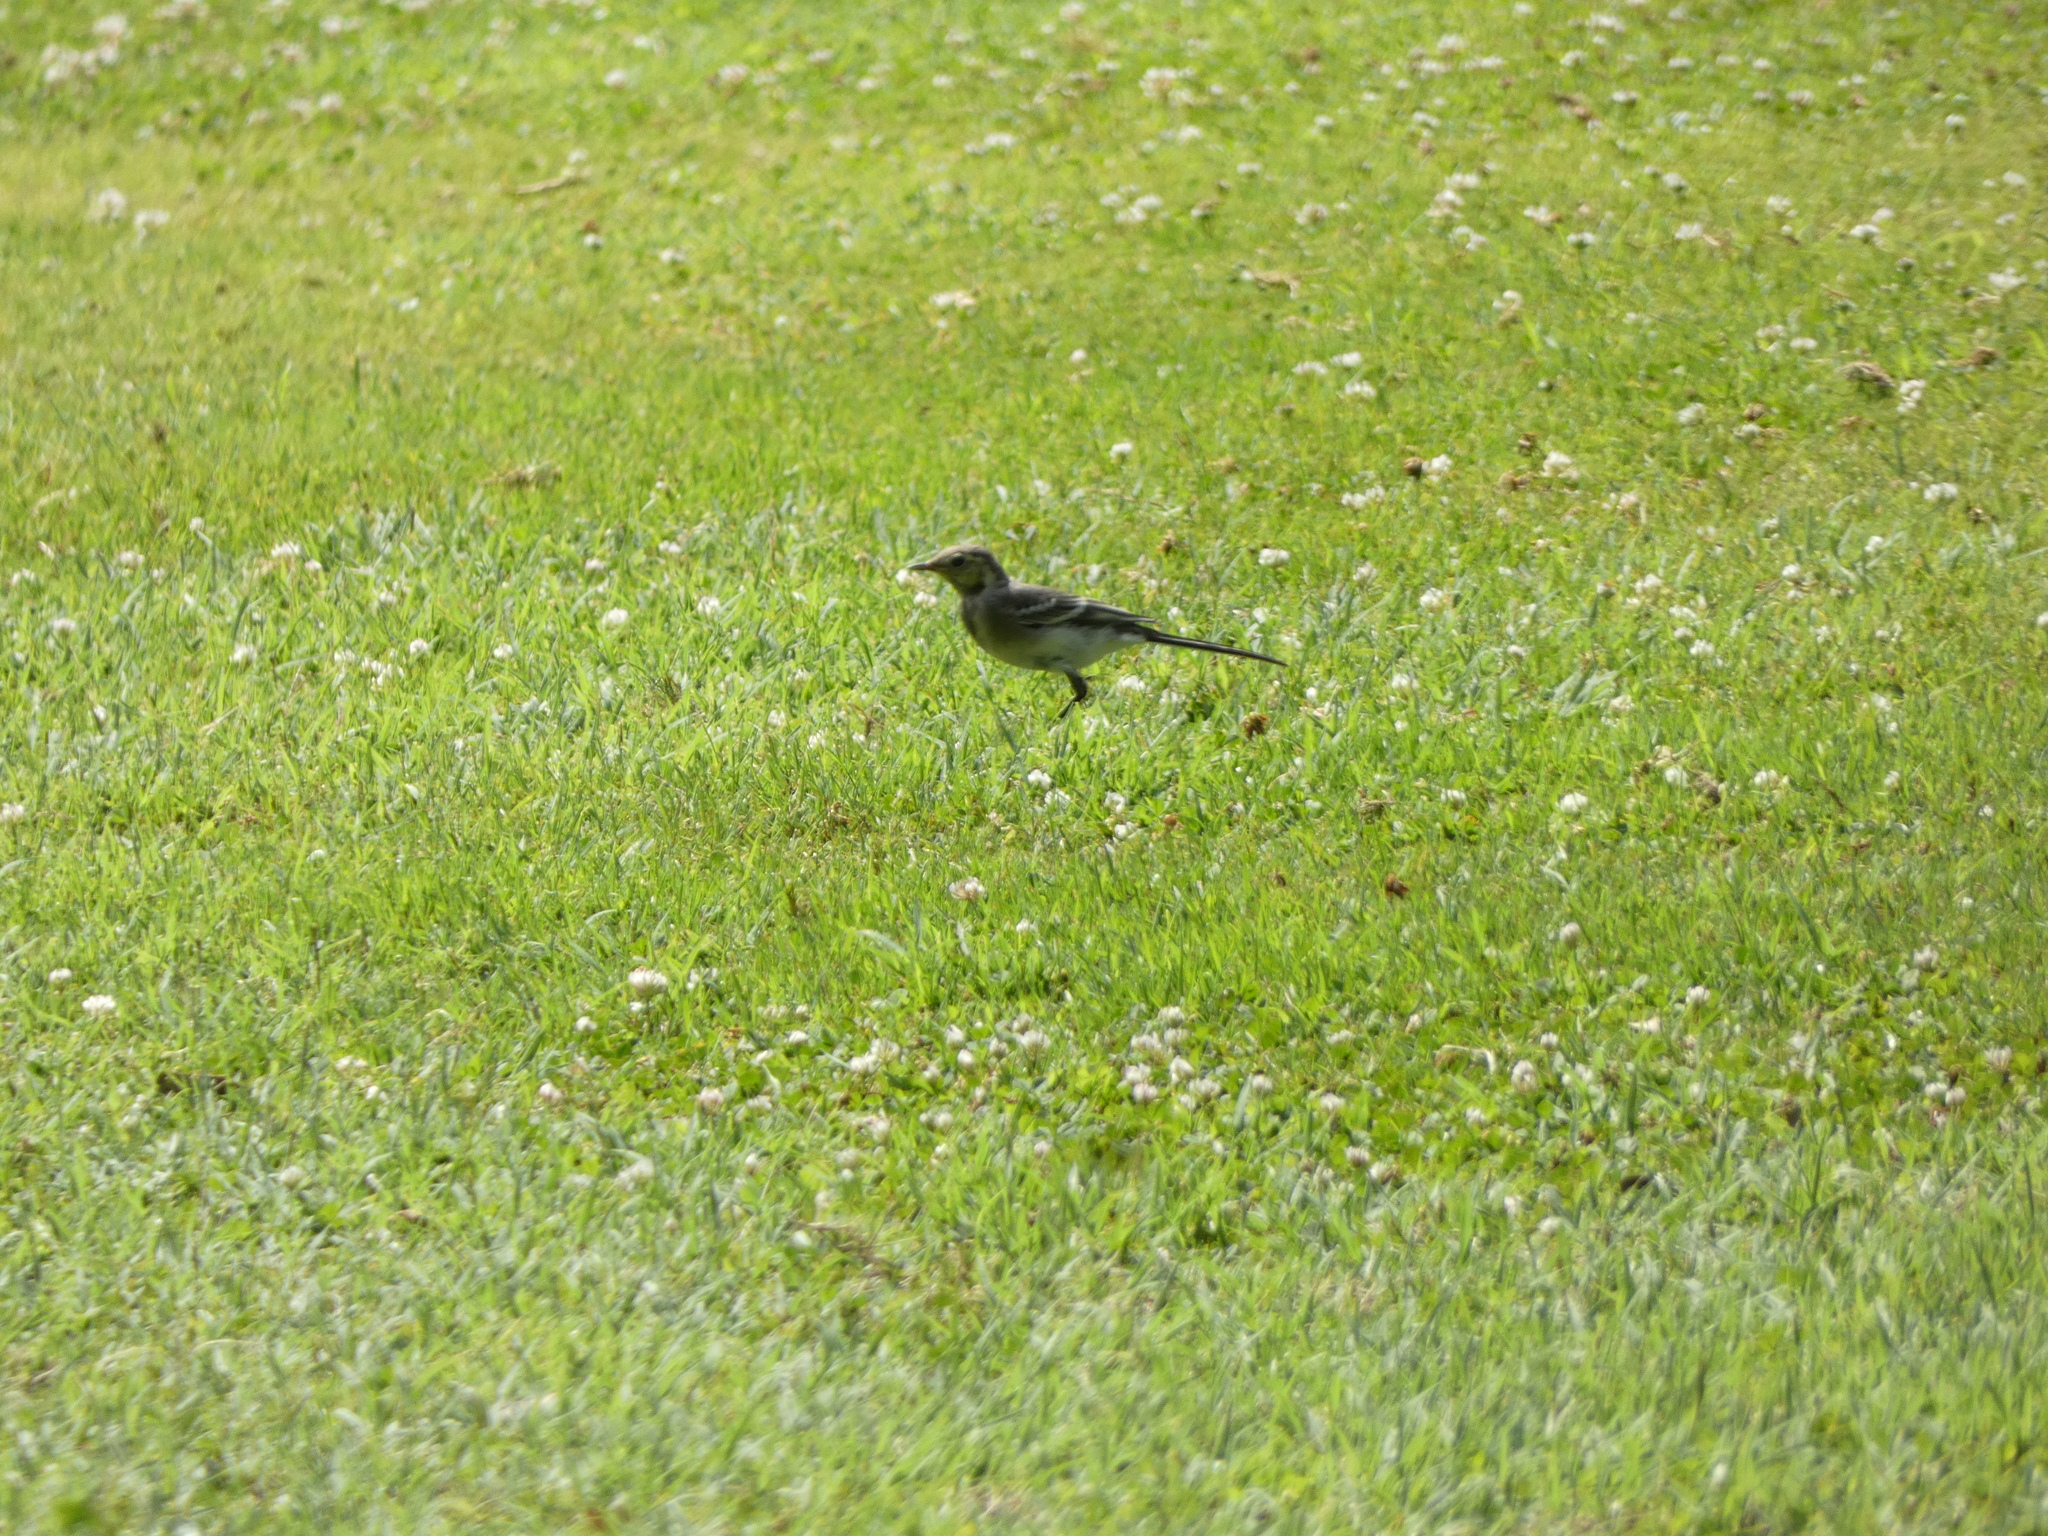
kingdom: Animalia
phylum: Chordata
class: Aves
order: Passeriformes
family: Motacillidae
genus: Motacilla
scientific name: Motacilla alba
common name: White wagtail
